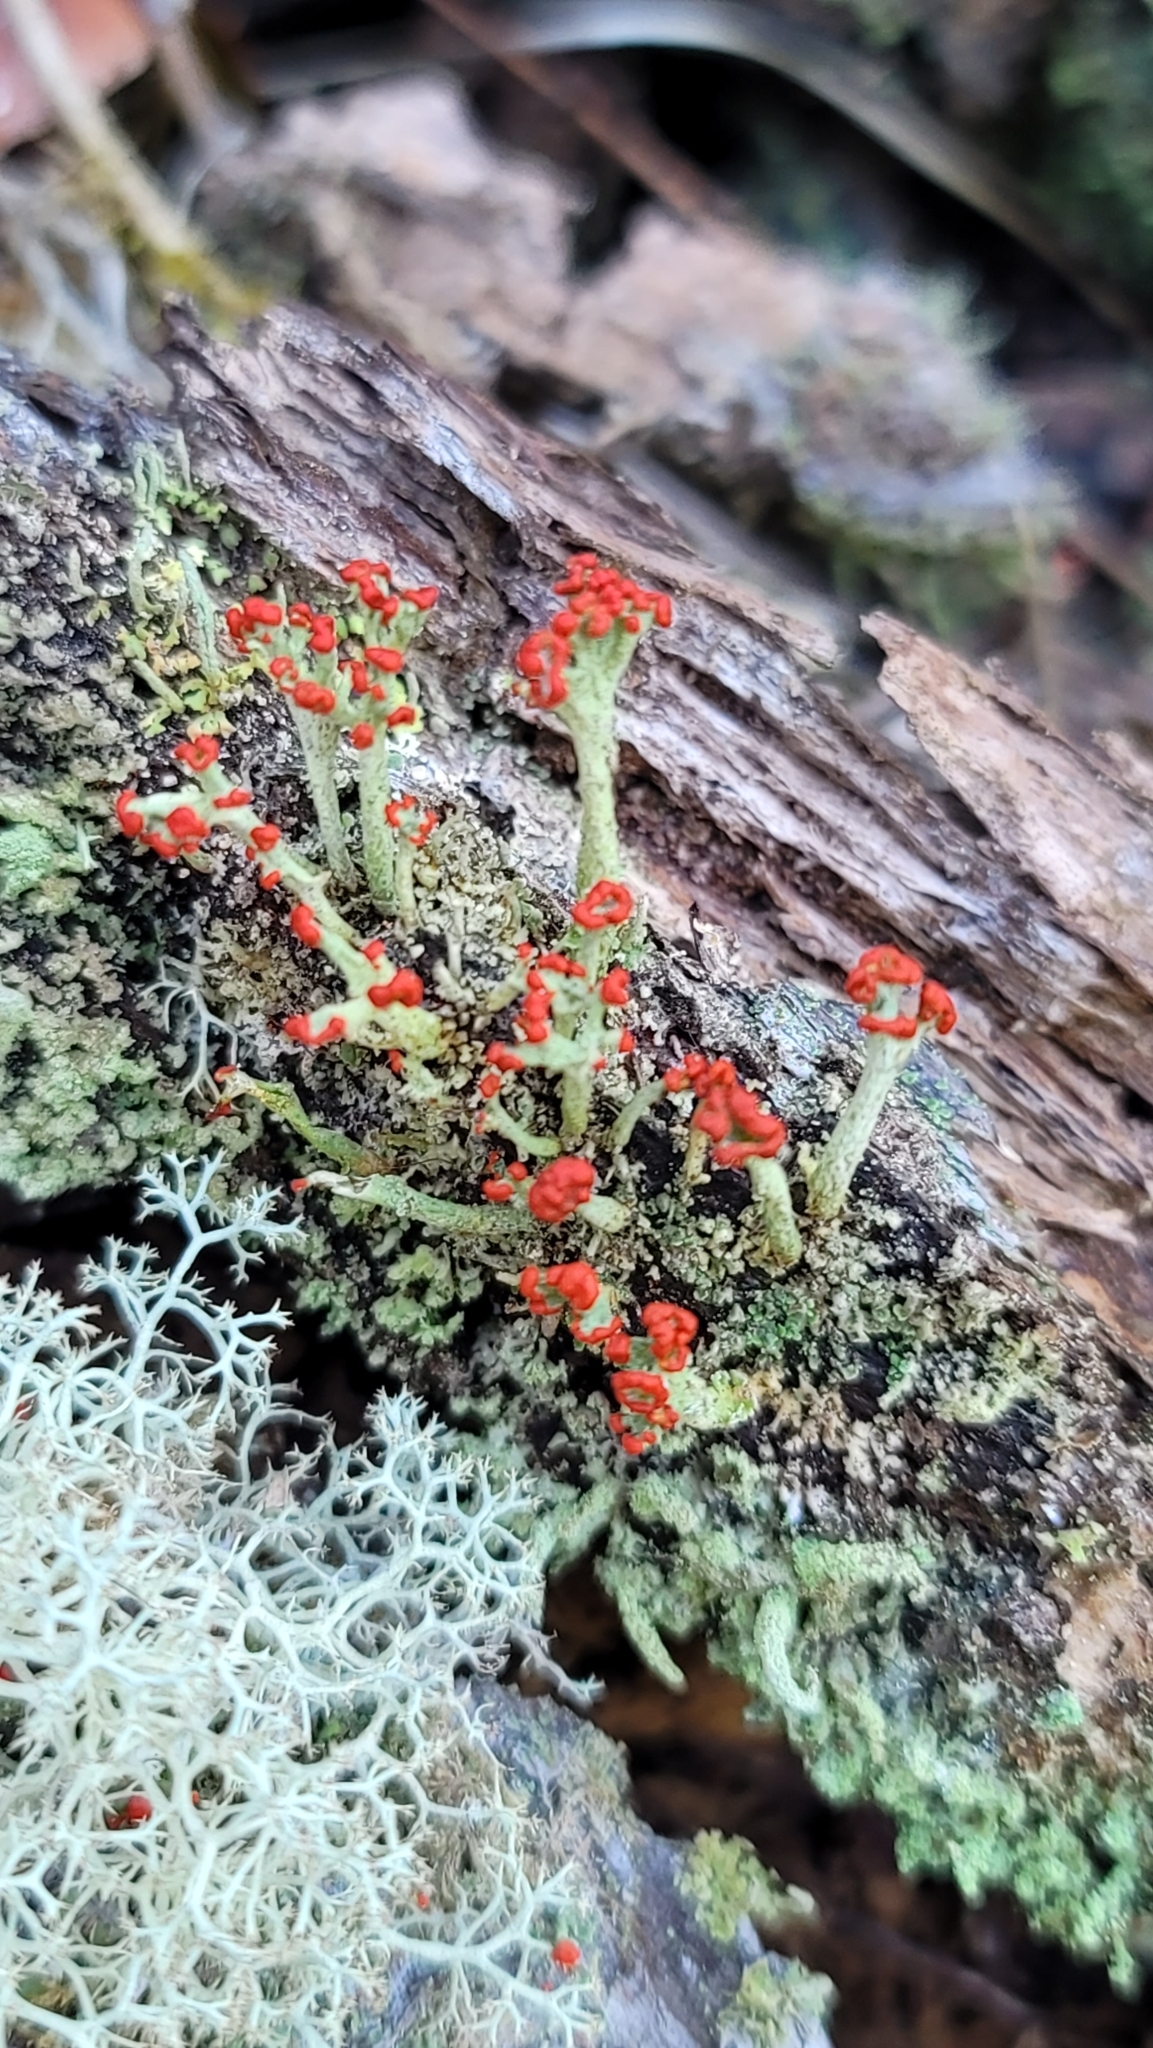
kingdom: Fungi
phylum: Ascomycota
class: Lecanoromycetes
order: Lecanorales
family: Cladoniaceae
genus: Cladonia
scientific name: Cladonia cristatella
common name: British soldier lichen
